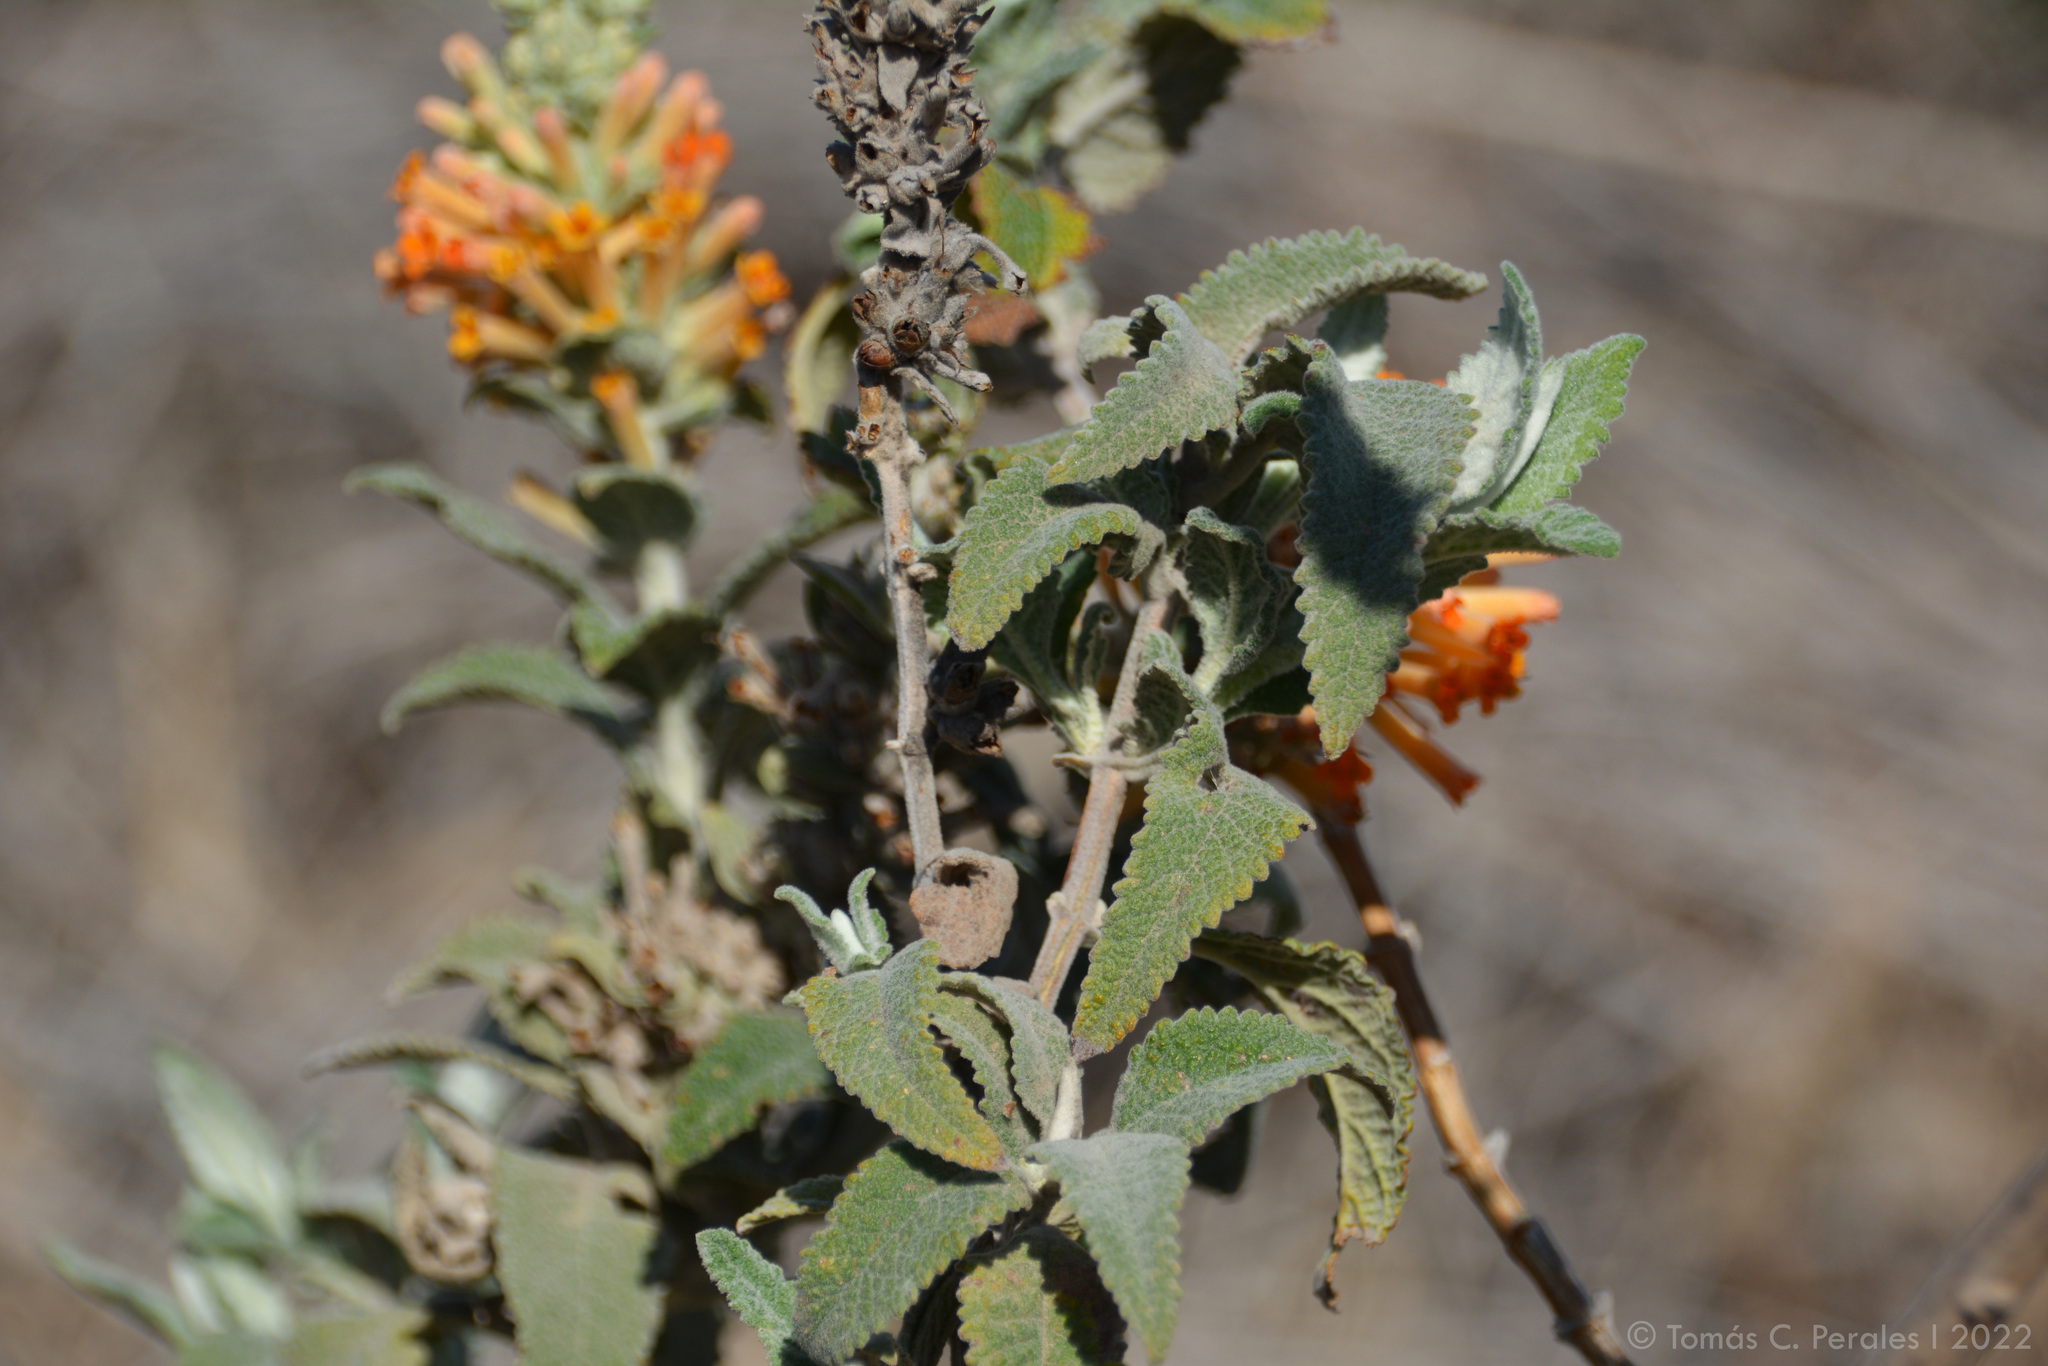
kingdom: Plantae
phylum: Tracheophyta
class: Magnoliopsida
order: Lamiales
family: Scrophulariaceae
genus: Buddleja
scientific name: Buddleja tubiflora
